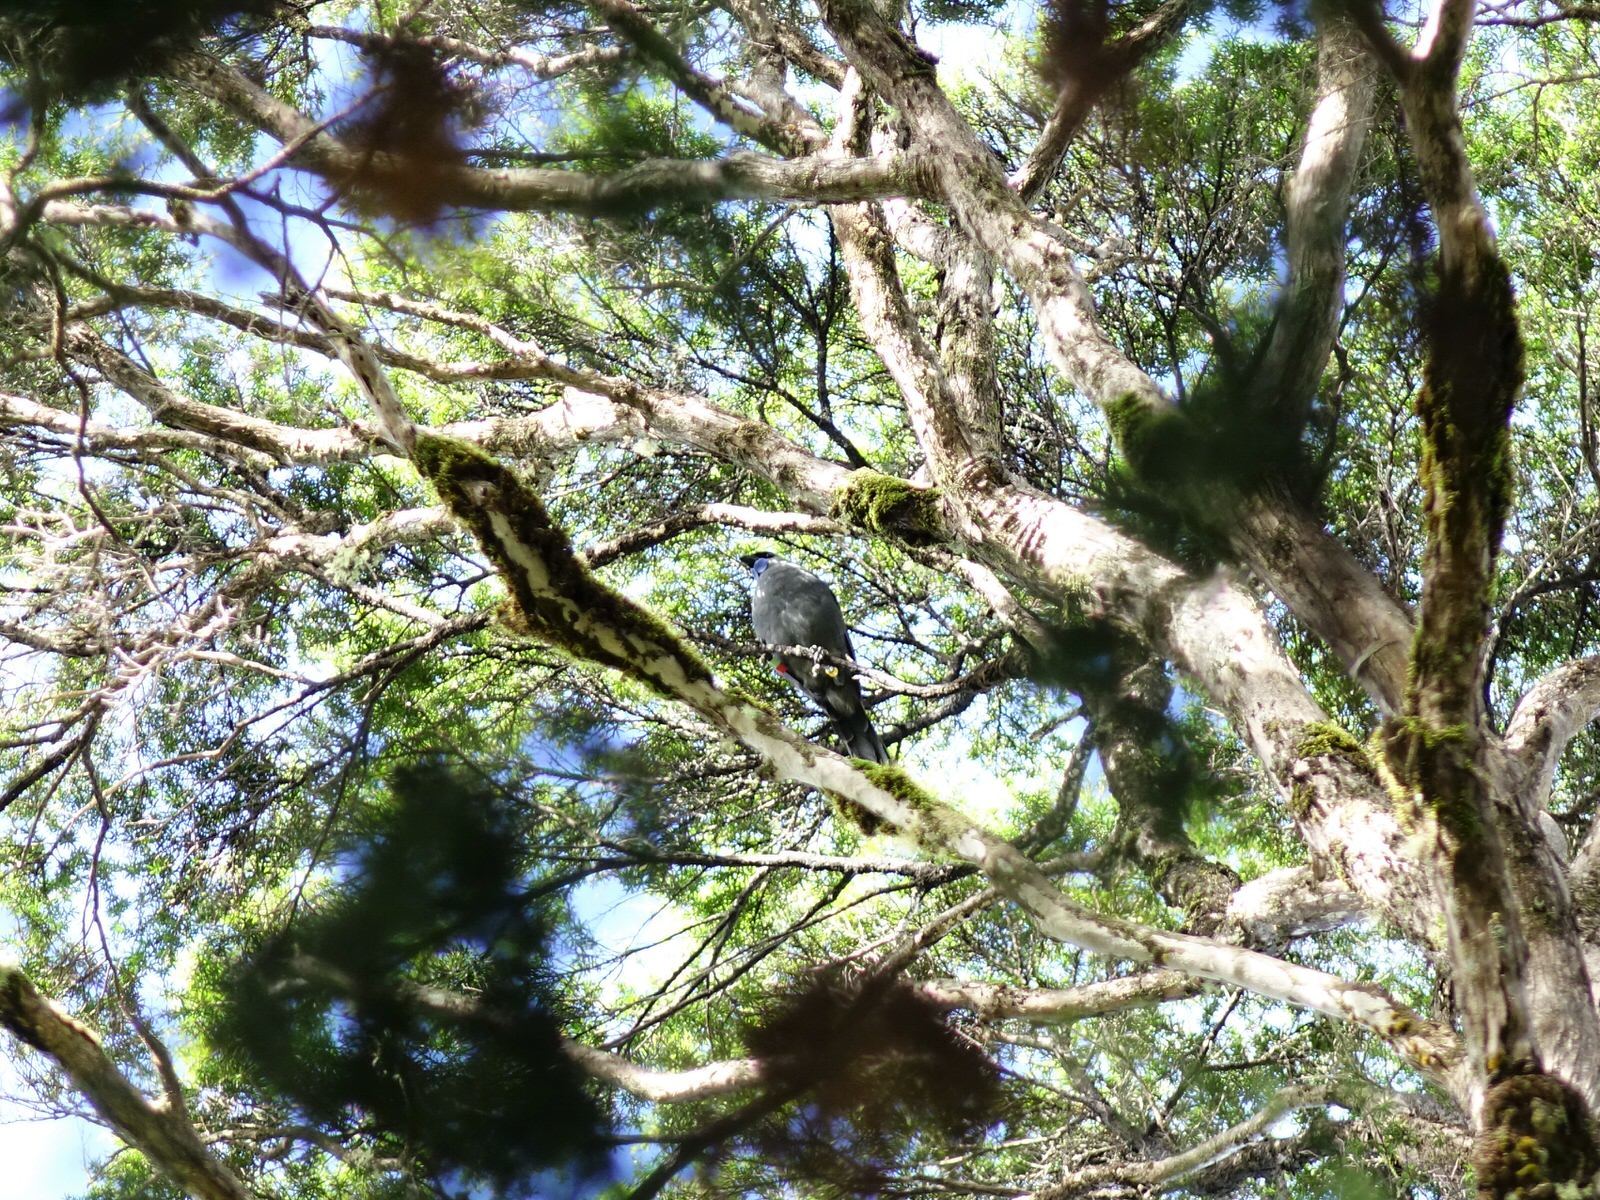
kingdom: Animalia
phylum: Chordata
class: Aves
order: Passeriformes
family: Callaeatidae
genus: Callaeas
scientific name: Callaeas cinereus
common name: South island kokako
